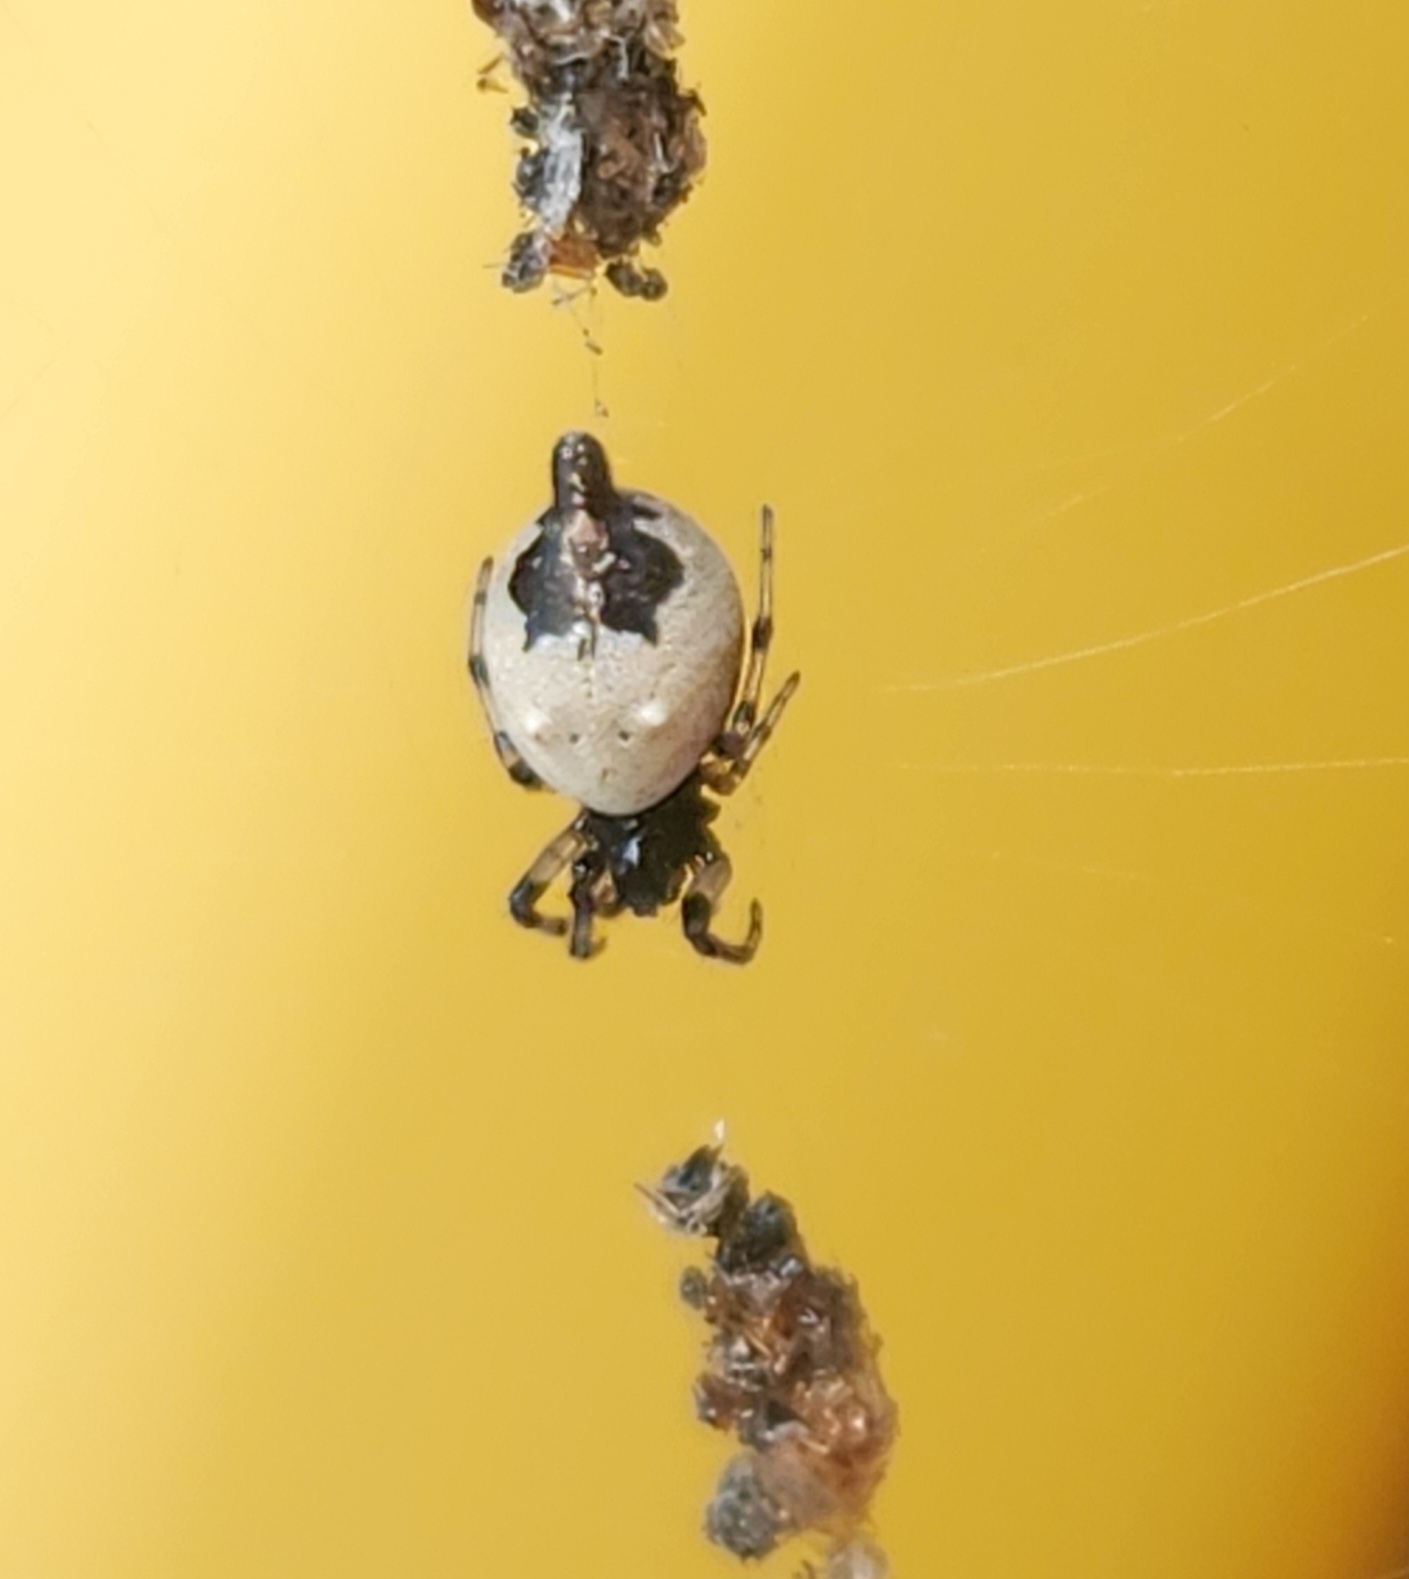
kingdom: Animalia
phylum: Arthropoda
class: Arachnida
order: Araneae
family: Araneidae
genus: Cyclosa
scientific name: Cyclosa turbinata
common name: Orb weavers
